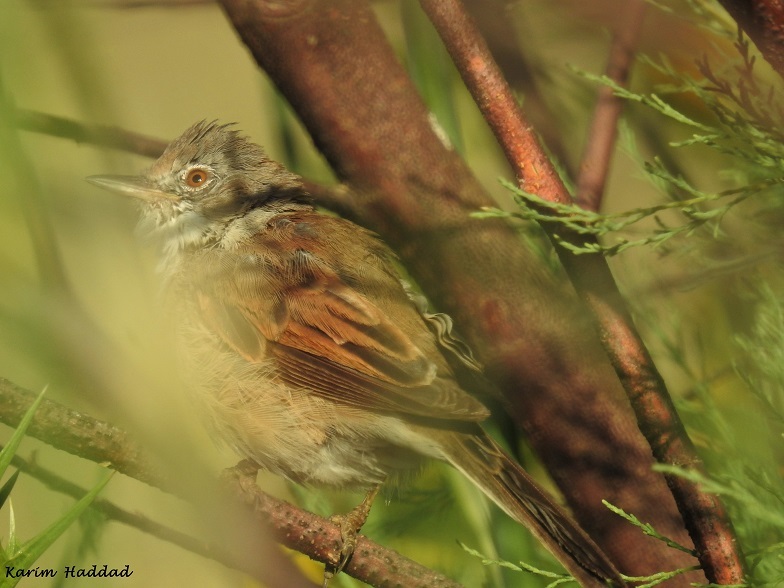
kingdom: Animalia
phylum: Chordata
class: Aves
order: Passeriformes
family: Sylviidae
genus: Sylvia
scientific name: Sylvia communis
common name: Common whitethroat
